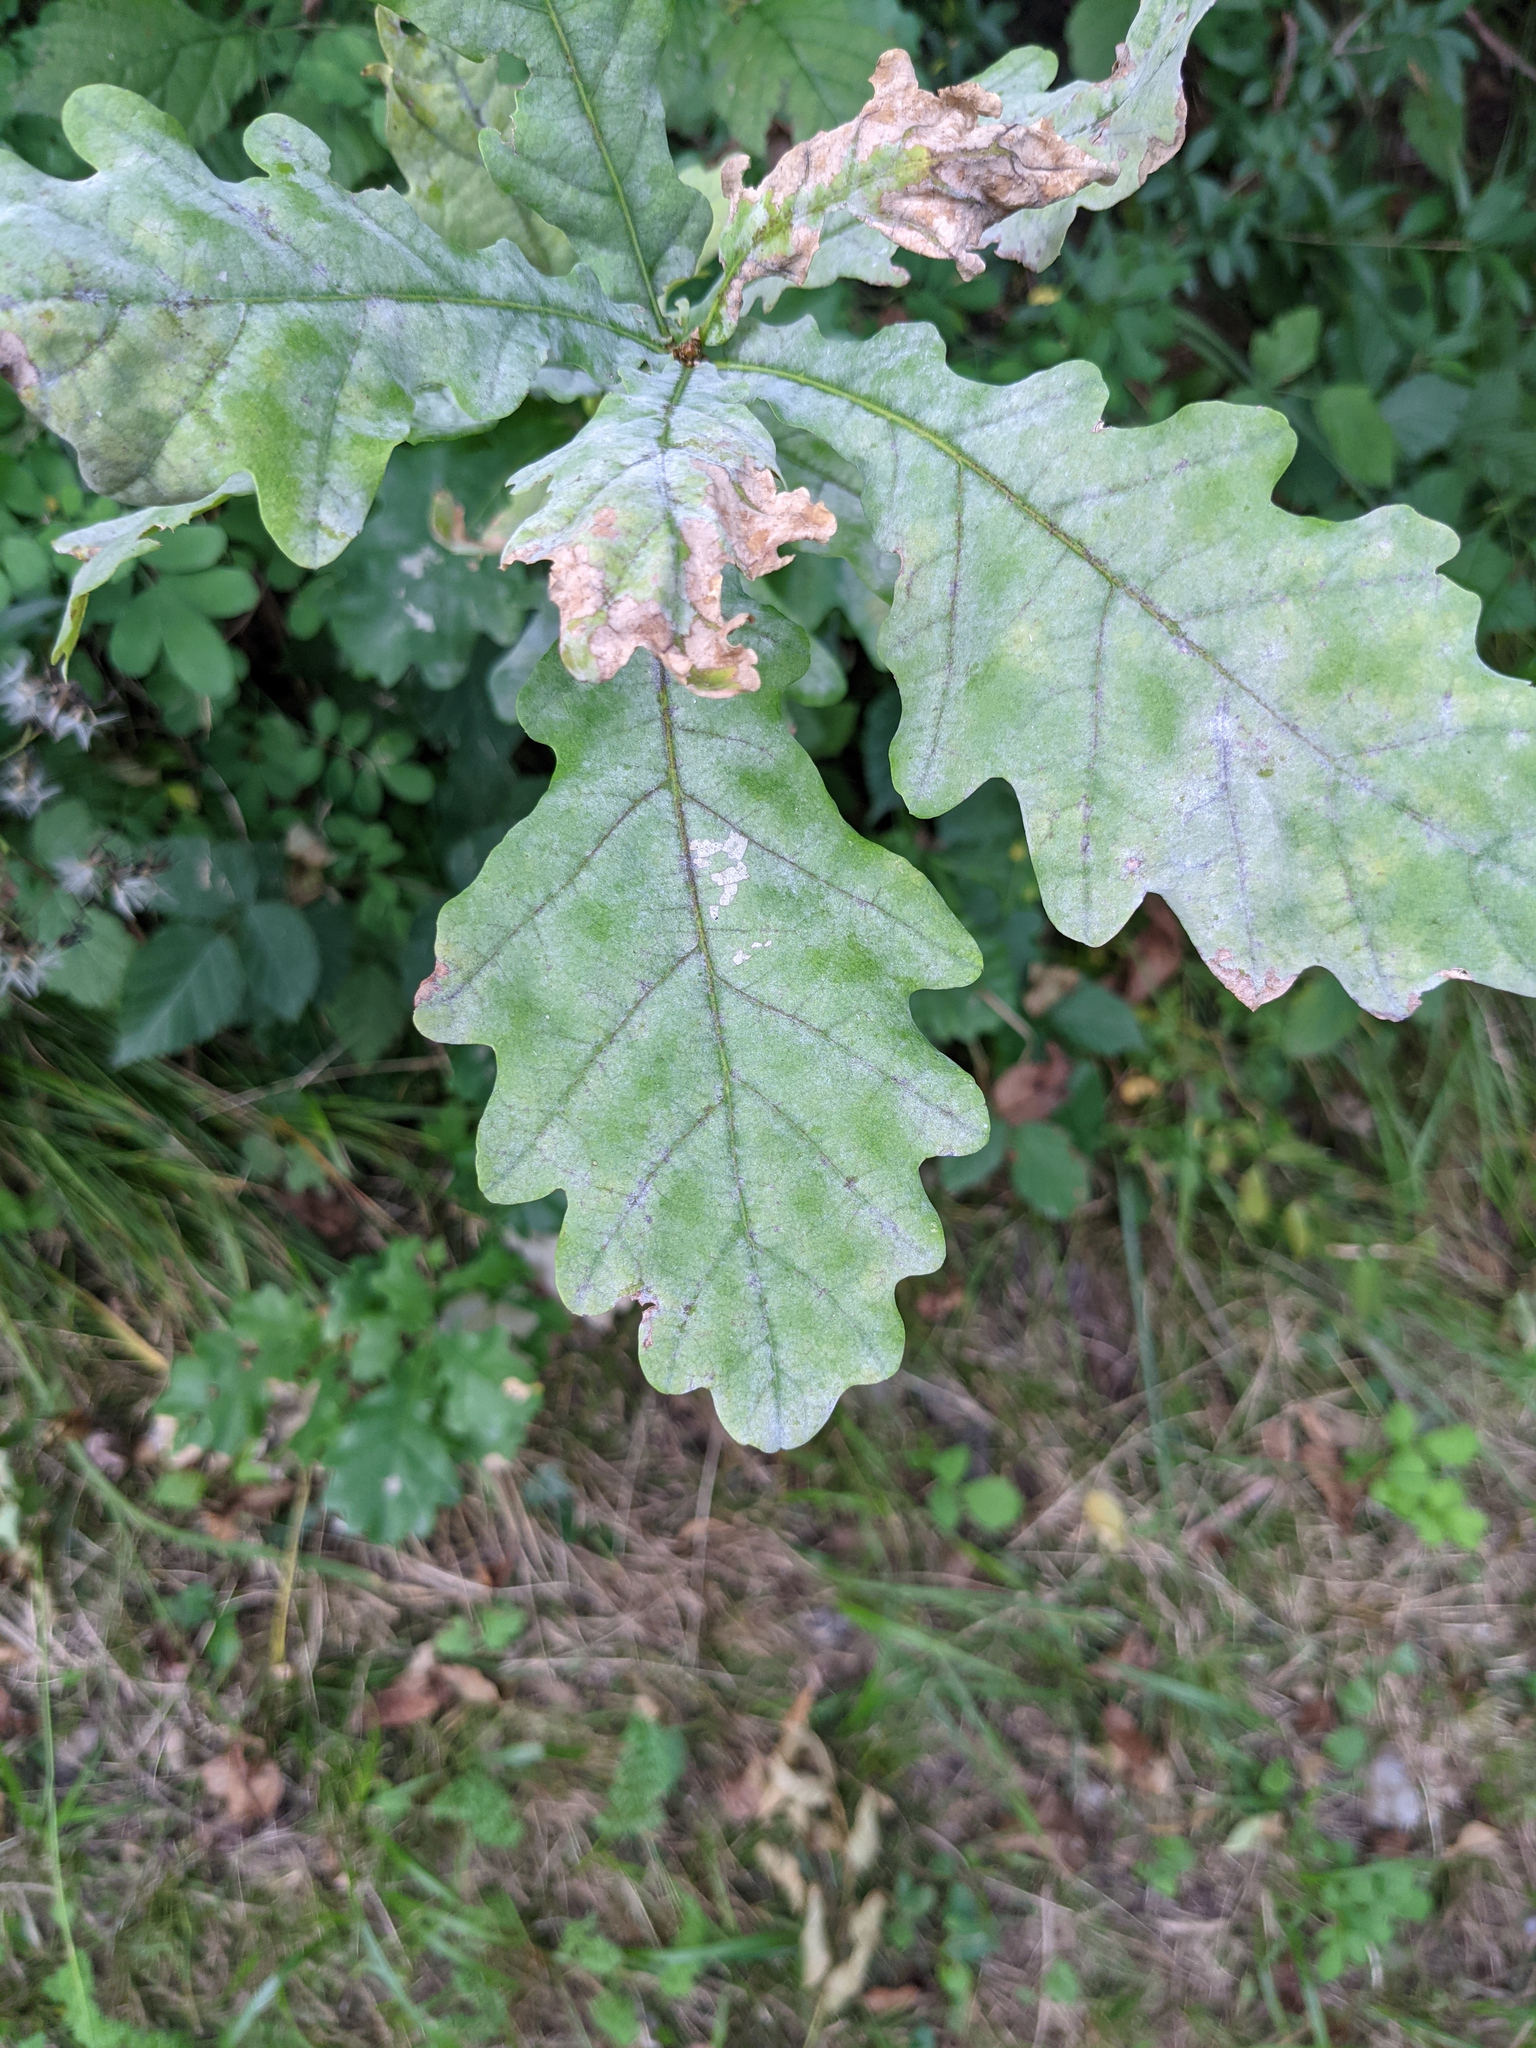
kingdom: Fungi
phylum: Ascomycota
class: Leotiomycetes
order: Helotiales
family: Erysiphaceae
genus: Erysiphe
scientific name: Erysiphe
